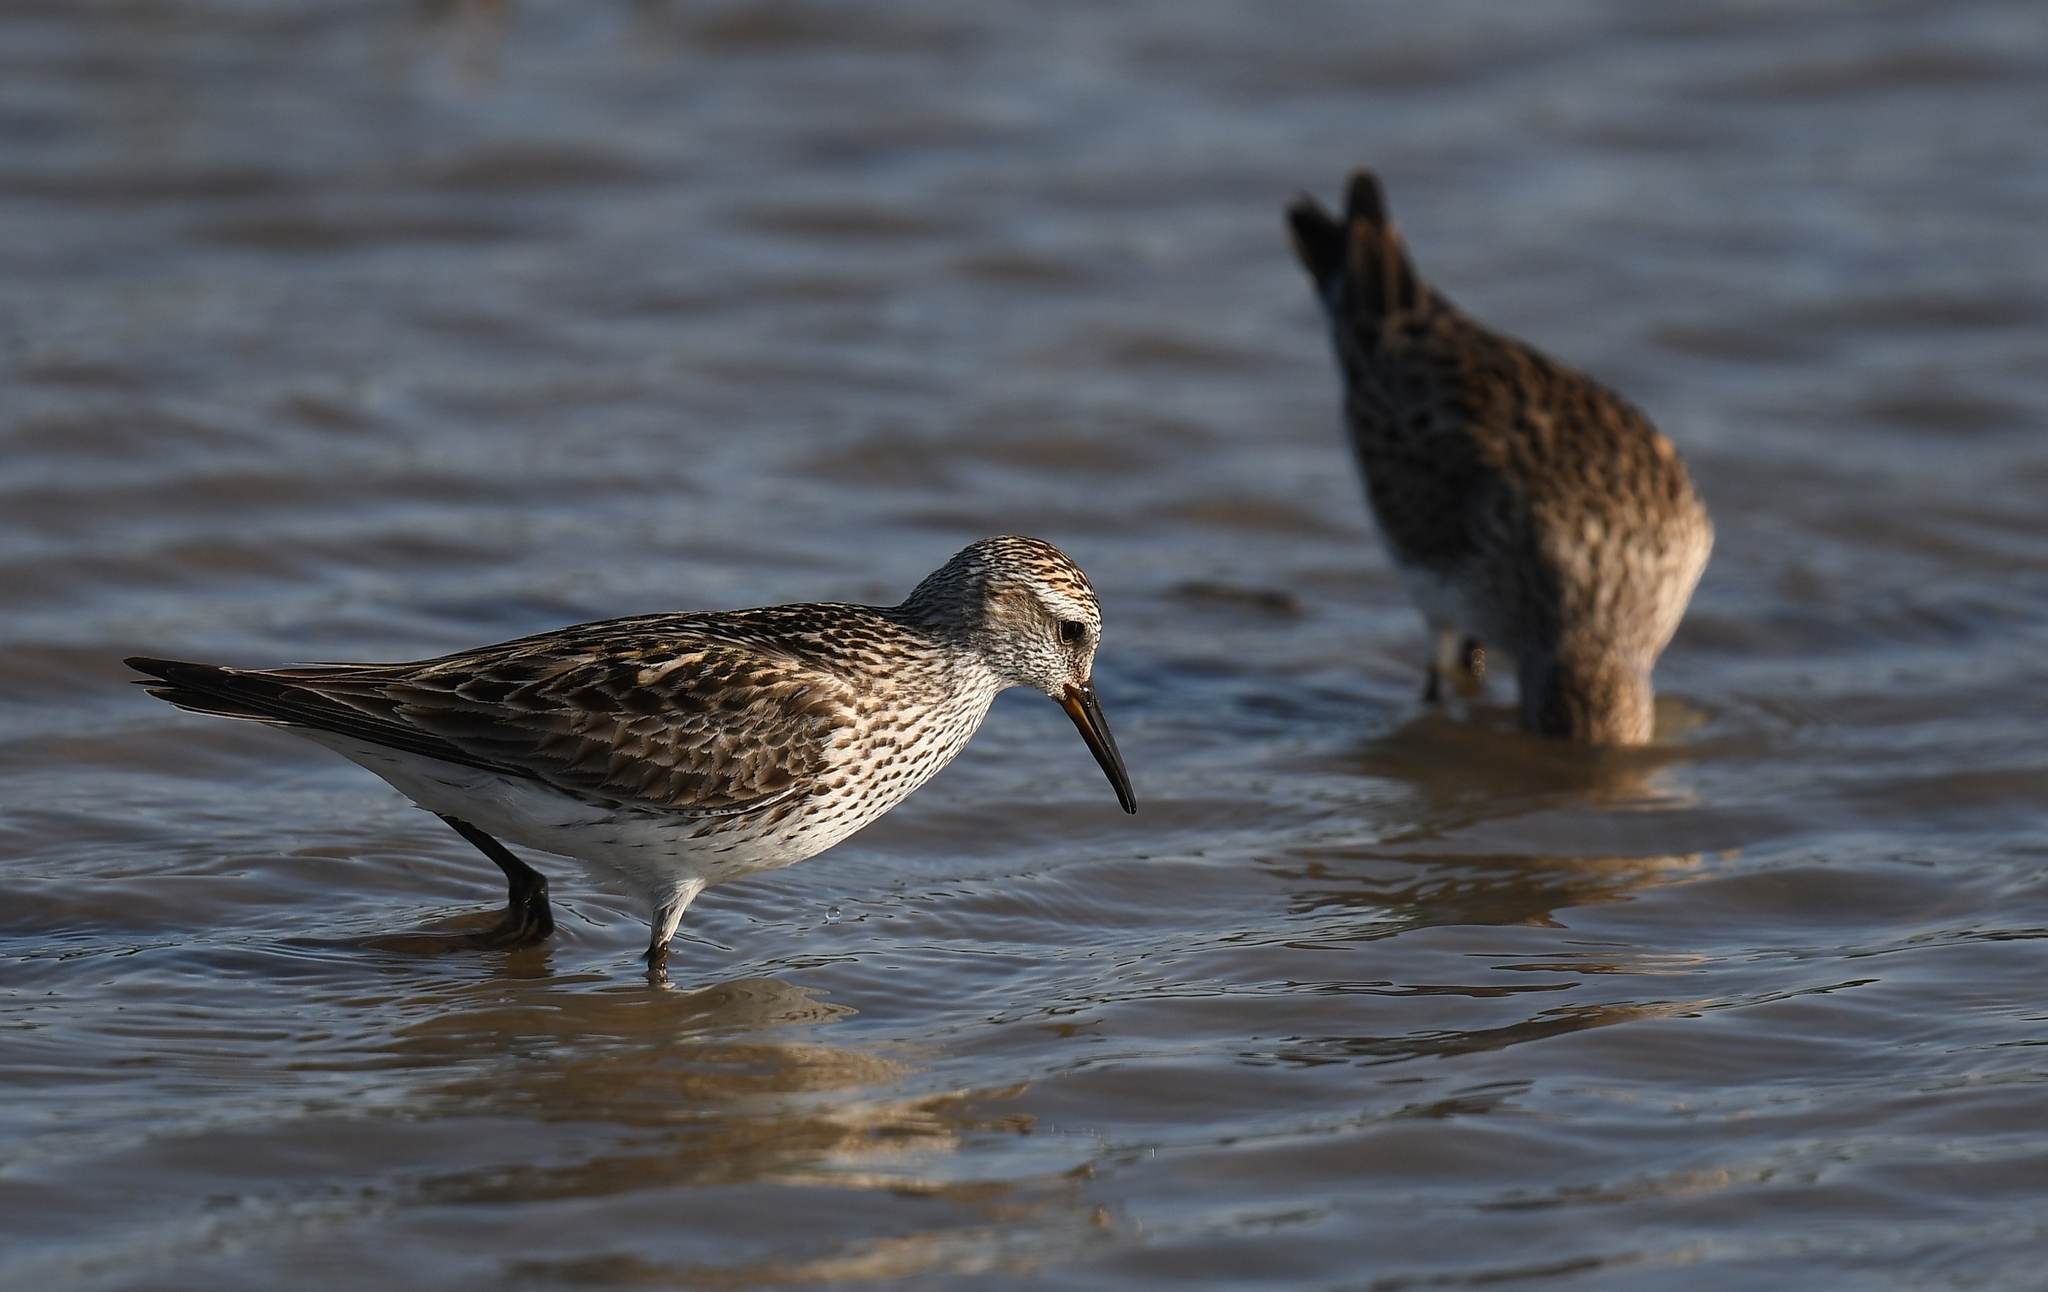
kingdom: Animalia
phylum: Chordata
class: Aves
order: Charadriiformes
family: Scolopacidae
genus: Calidris
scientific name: Calidris fuscicollis
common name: White-rumped sandpiper
